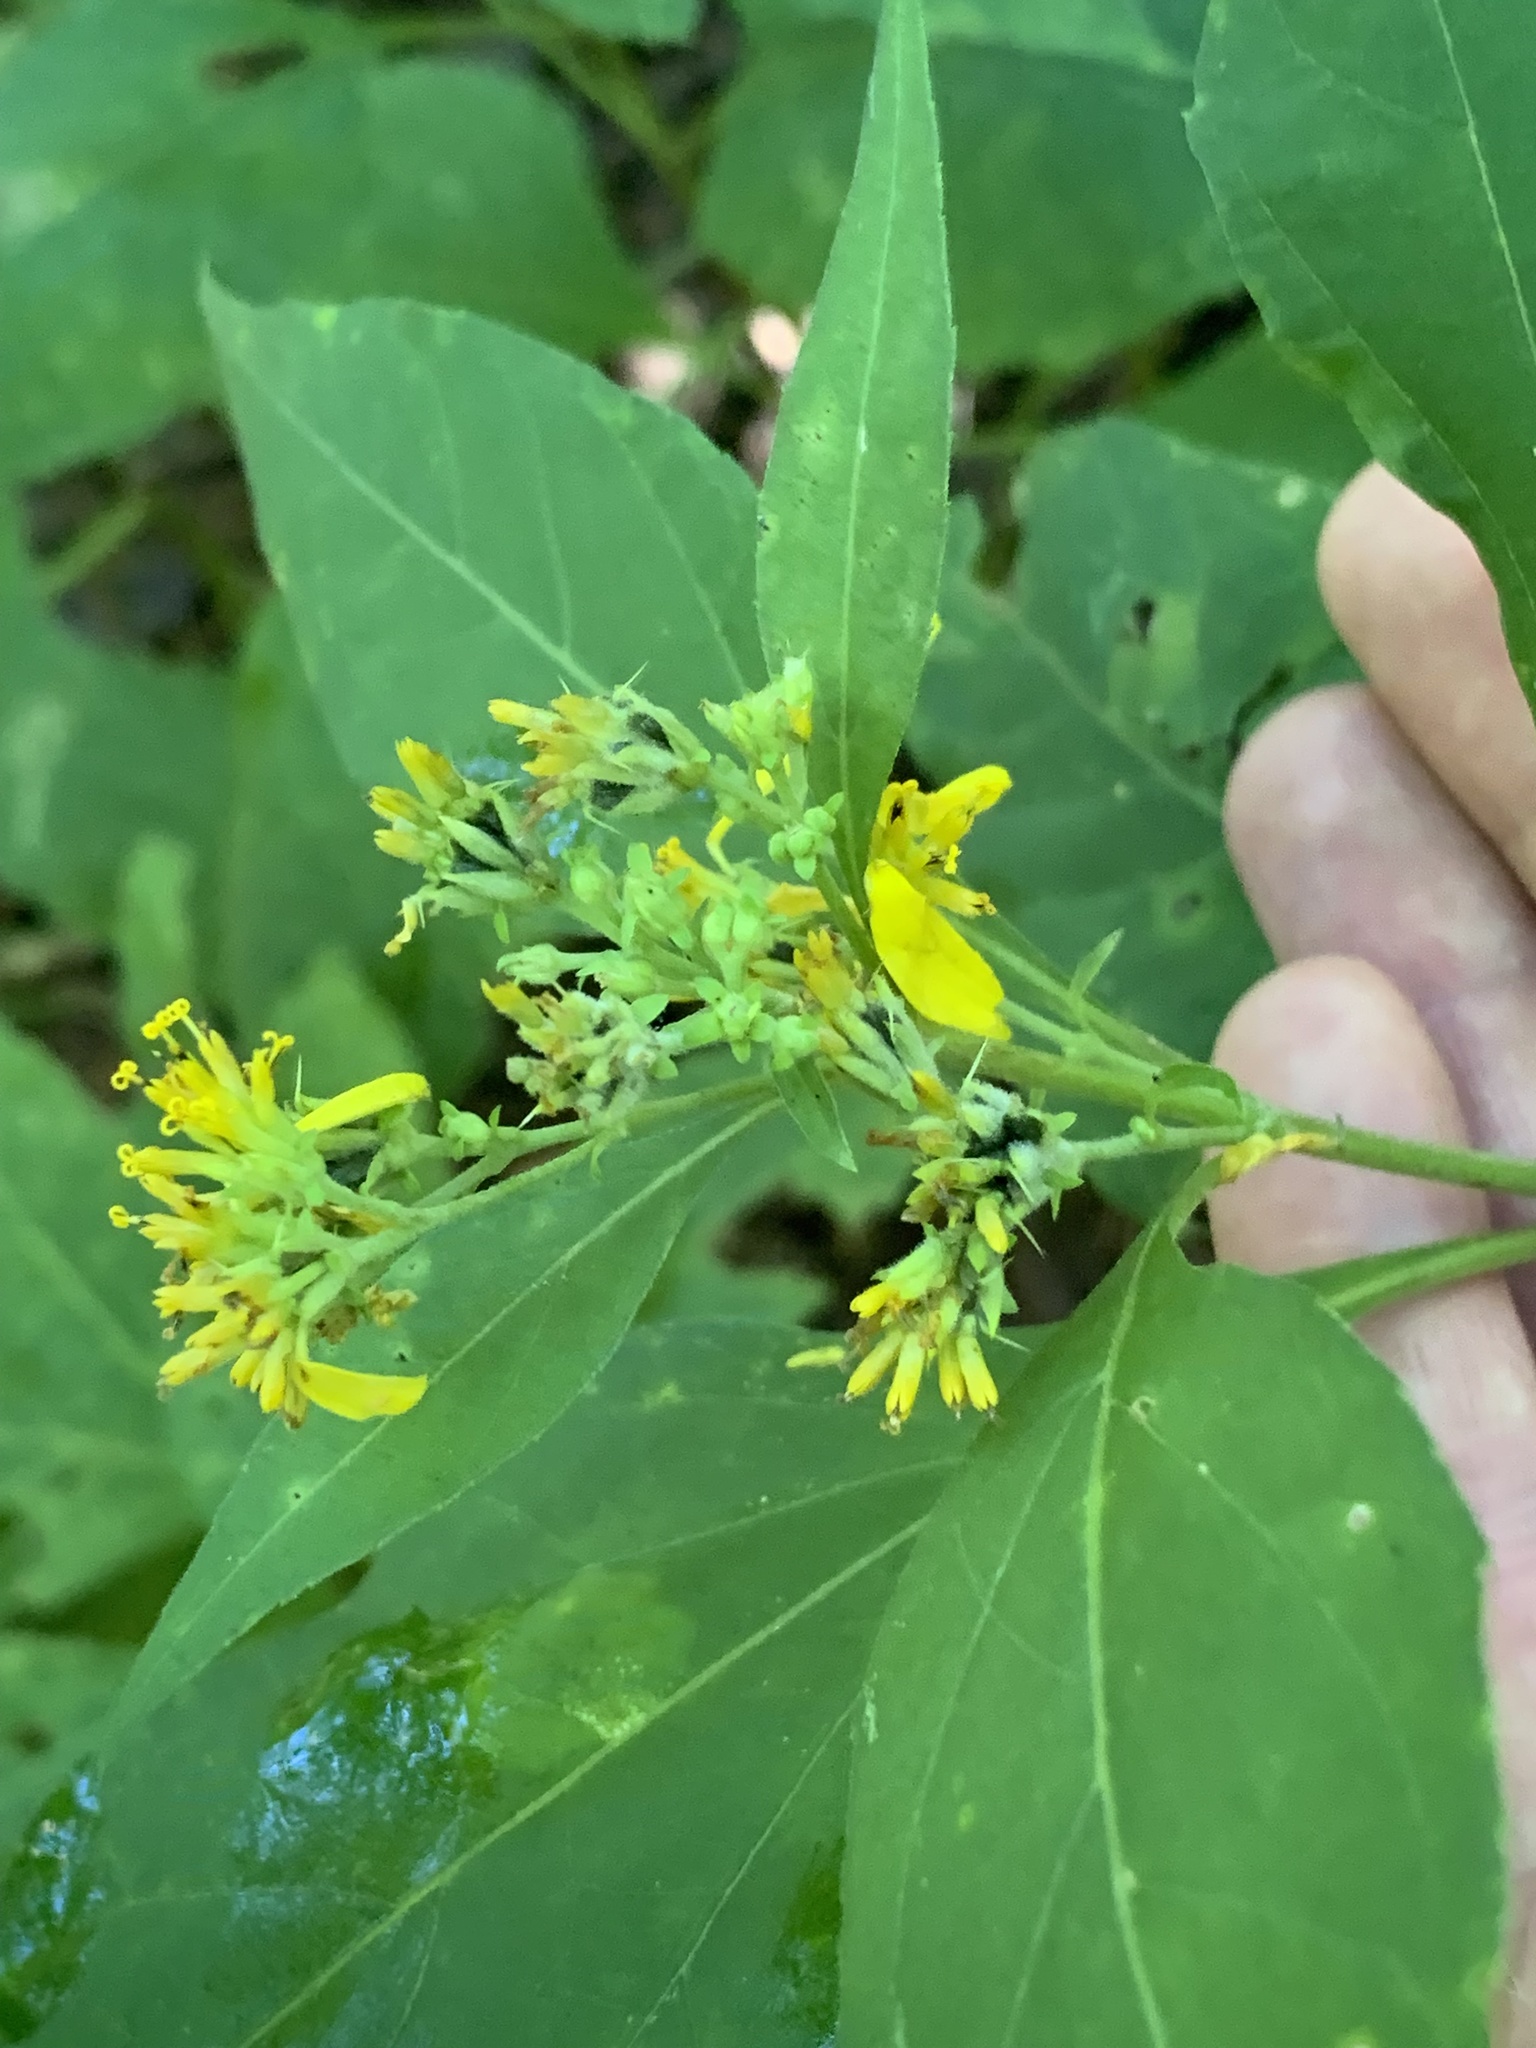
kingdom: Plantae
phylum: Tracheophyta
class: Magnoliopsida
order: Asterales
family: Asteraceae
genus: Verbesina
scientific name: Verbesina occidentalis
